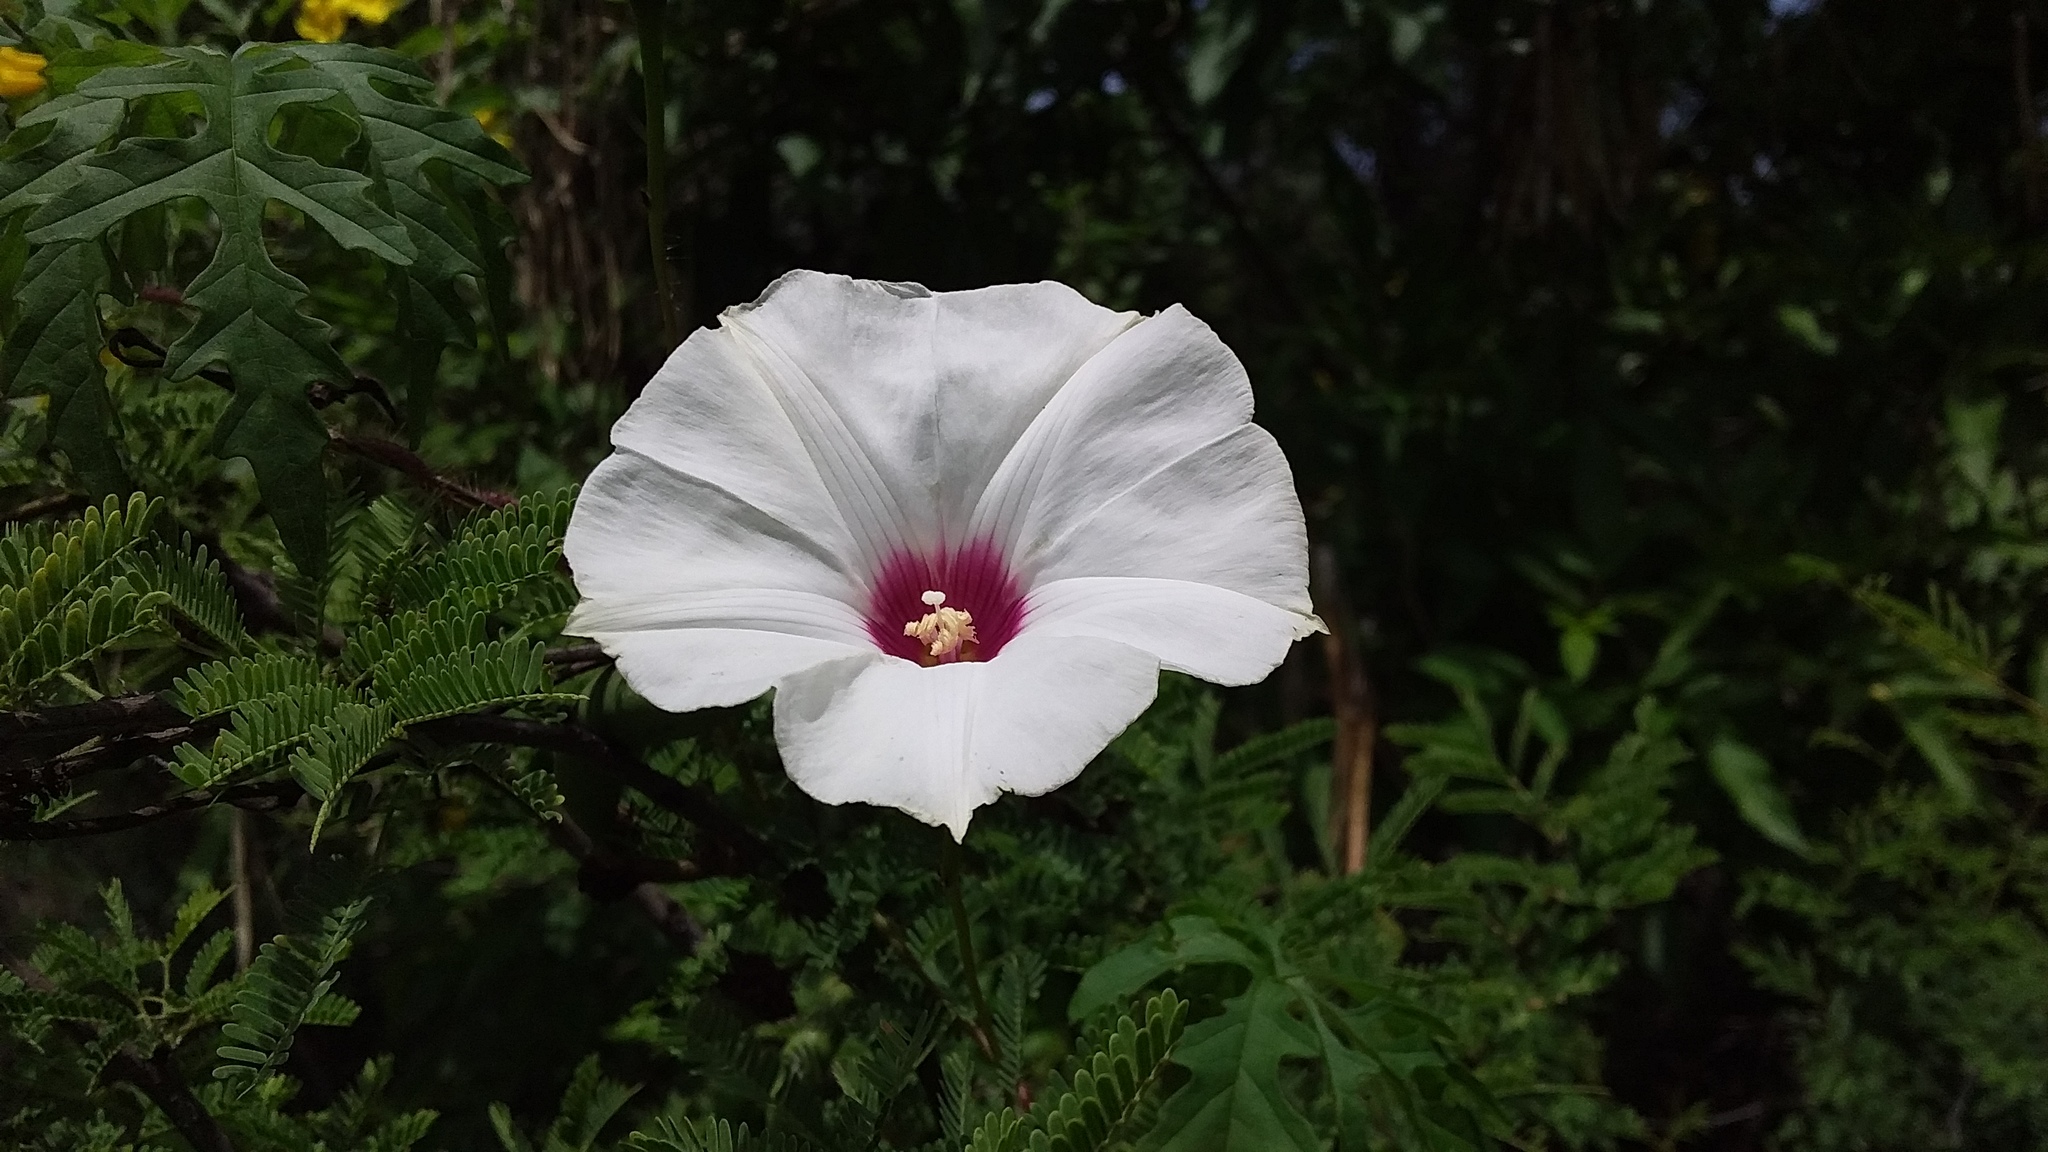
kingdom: Plantae
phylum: Tracheophyta
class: Magnoliopsida
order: Solanales
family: Convolvulaceae
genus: Distimake
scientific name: Distimake dissectus
